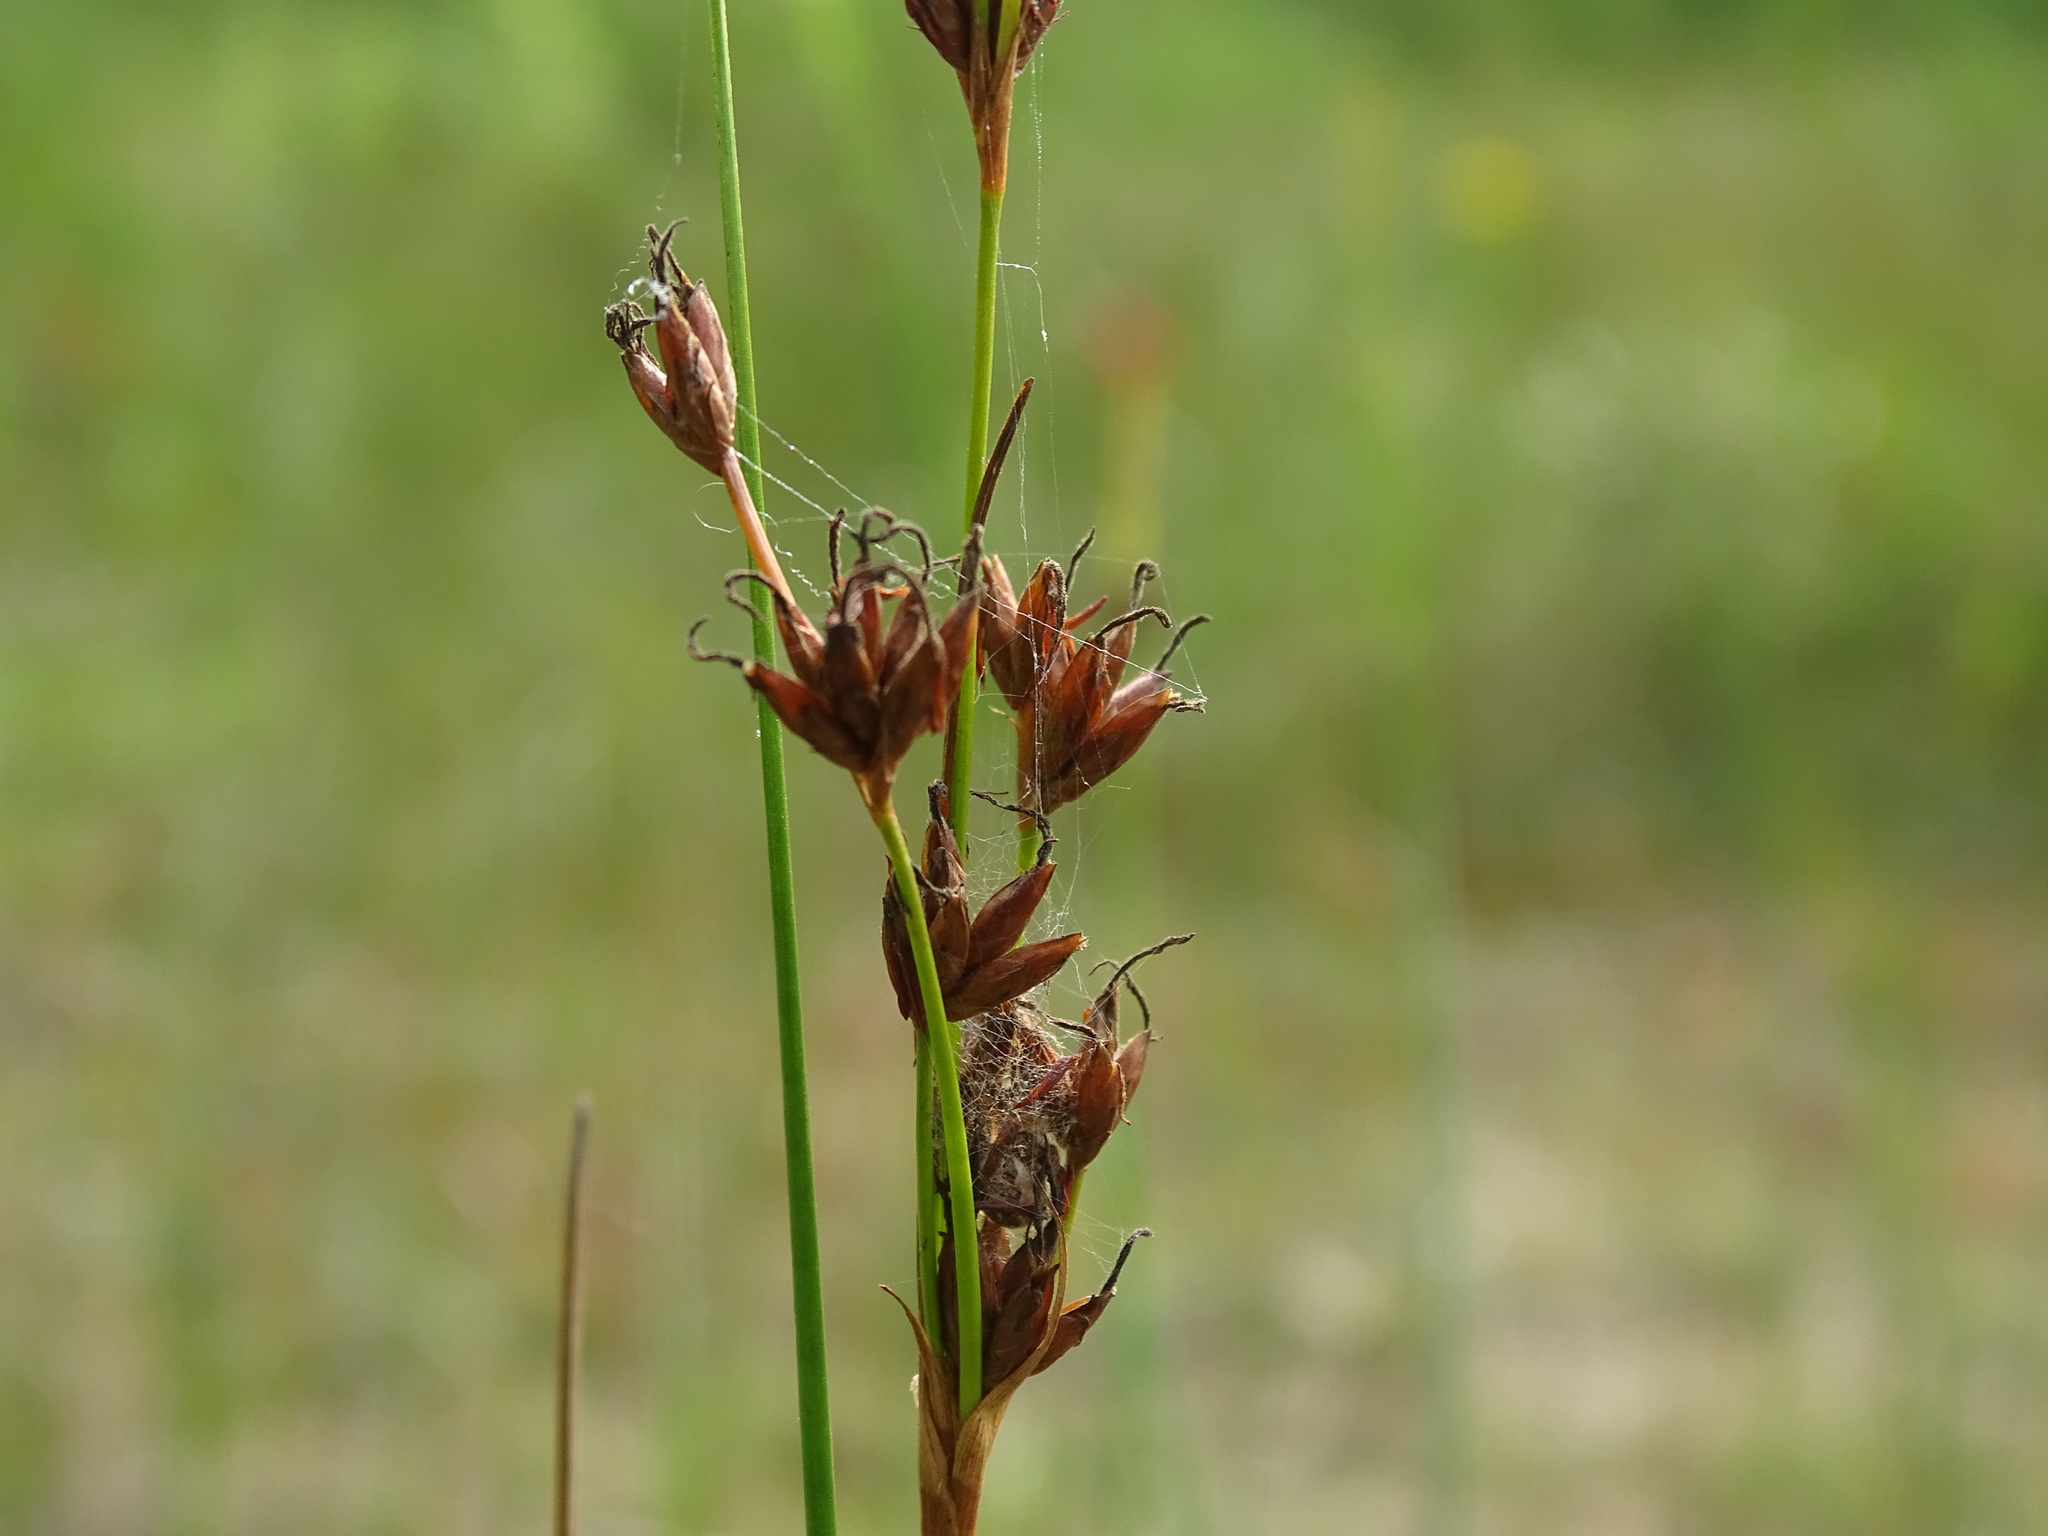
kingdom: Plantae
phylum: Tracheophyta
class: Liliopsida
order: Poales
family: Cyperaceae
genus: Cladium
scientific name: Cladium mariscoides
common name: Smooth sawgrass
